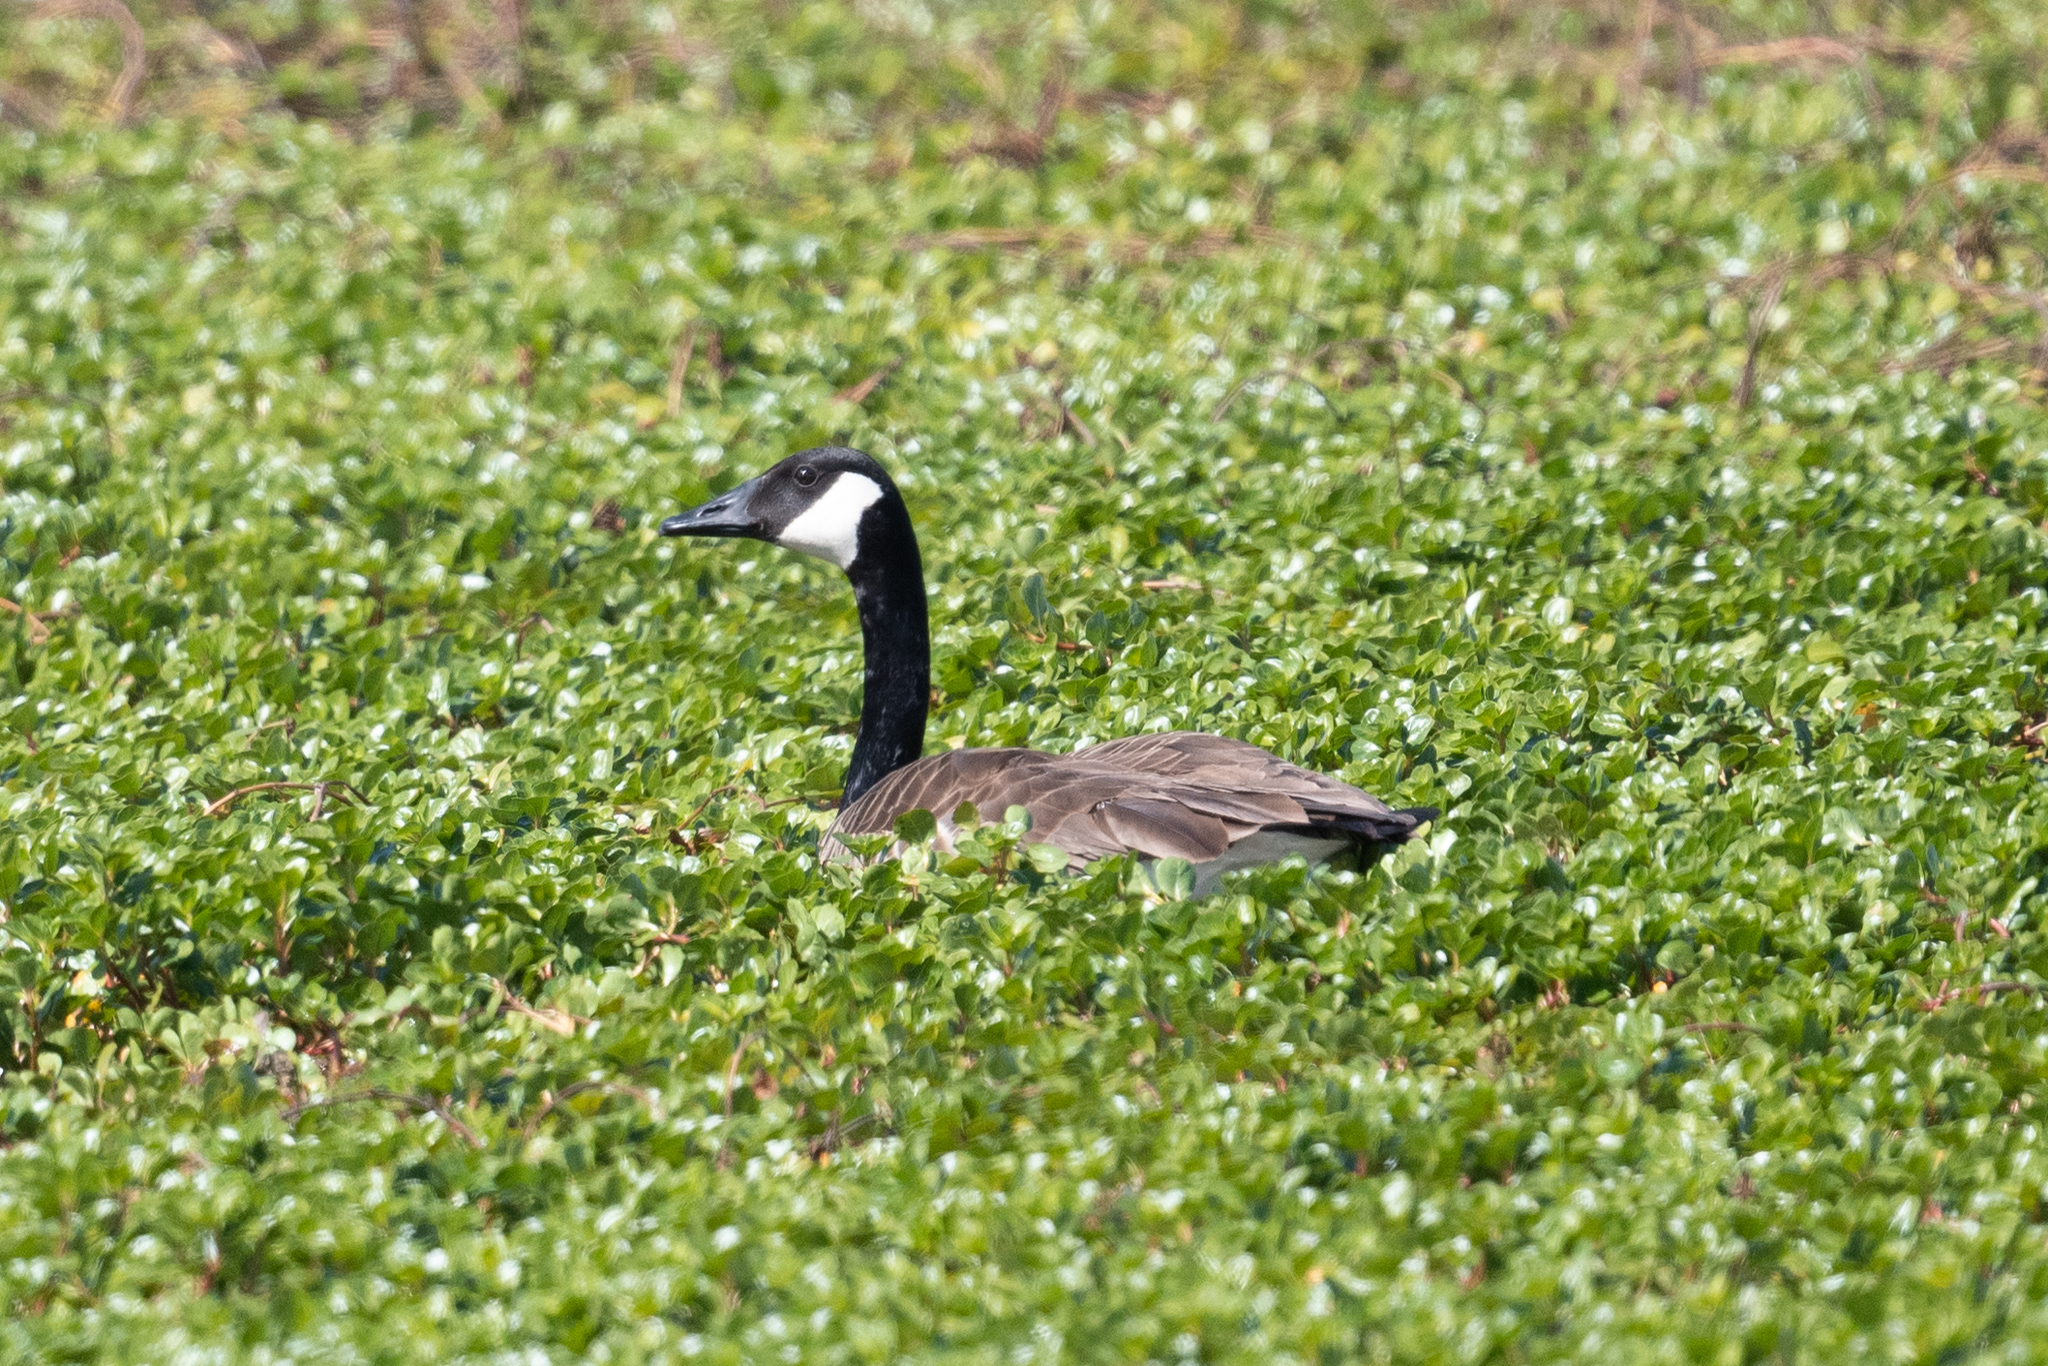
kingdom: Animalia
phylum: Chordata
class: Aves
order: Anseriformes
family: Anatidae
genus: Branta
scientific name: Branta canadensis
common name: Canada goose
